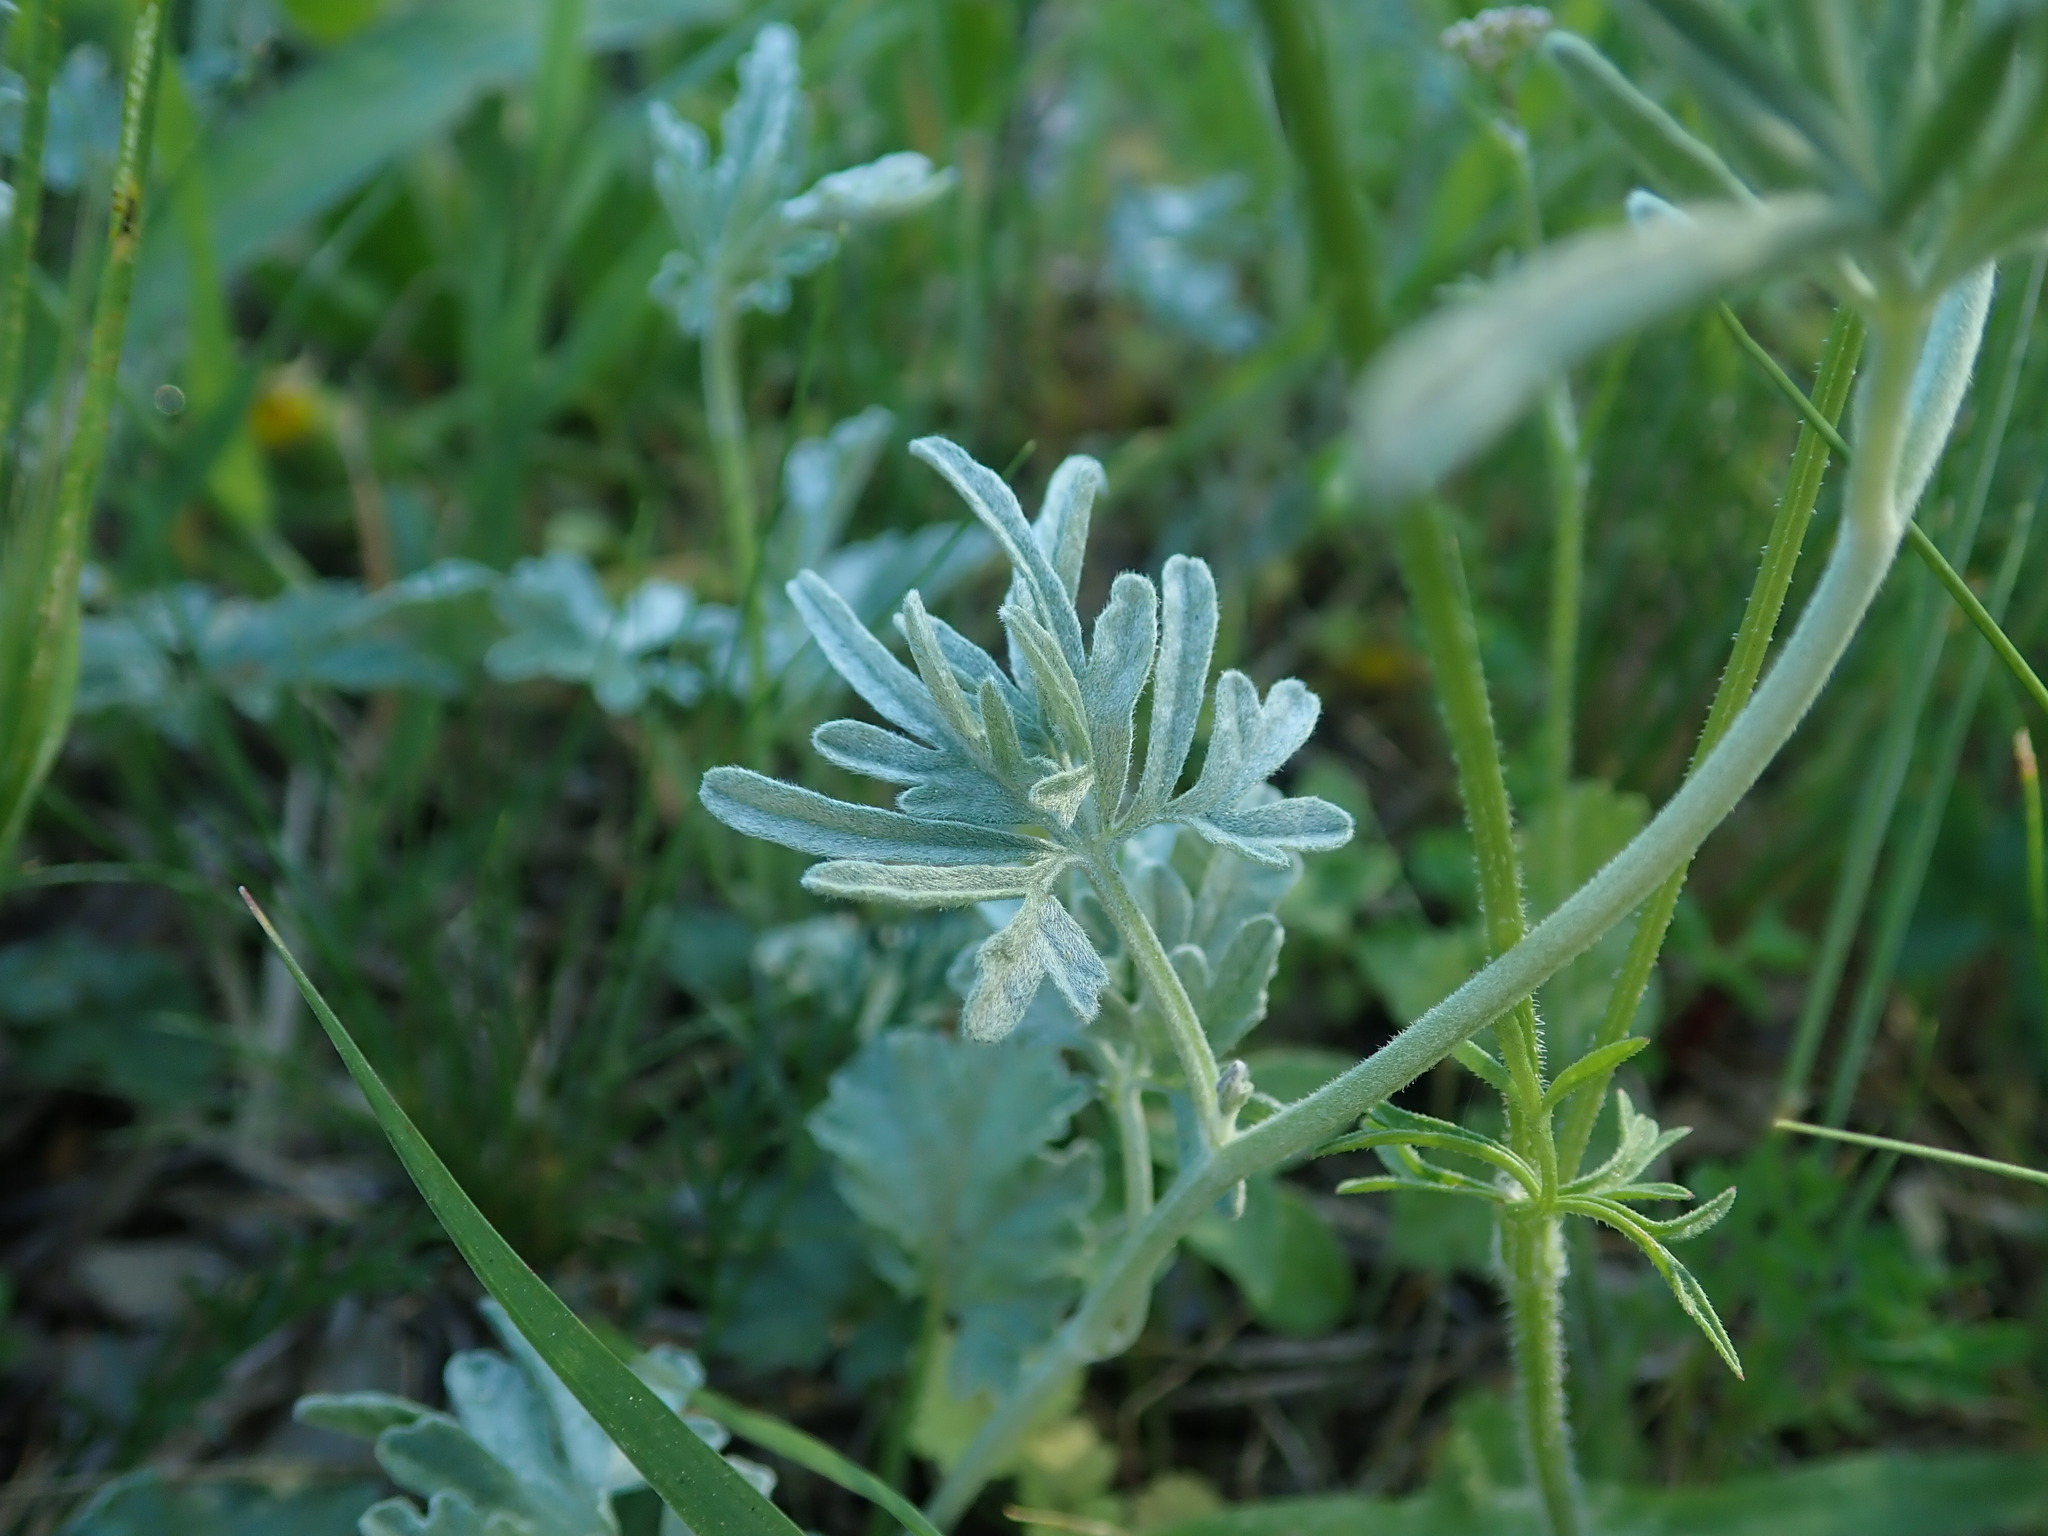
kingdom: Plantae
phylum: Tracheophyta
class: Magnoliopsida
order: Solanales
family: Convolvulaceae
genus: Convolvulus
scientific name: Convolvulus elegantissimus
